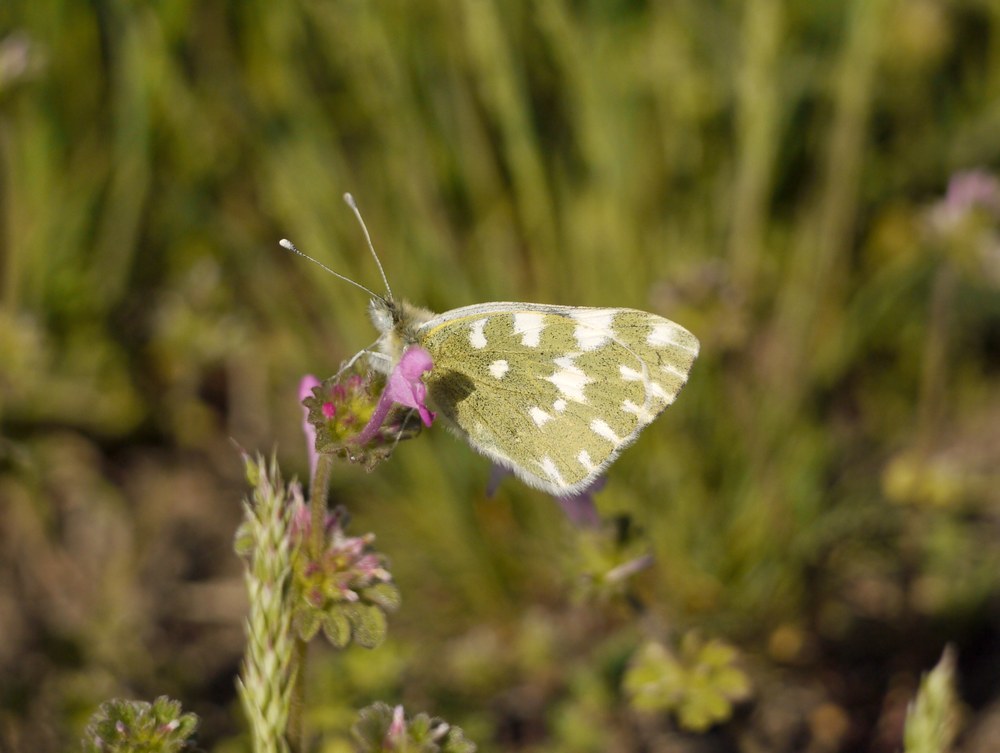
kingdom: Animalia
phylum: Arthropoda
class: Insecta
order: Lepidoptera
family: Pieridae
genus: Pontia
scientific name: Pontia edusa
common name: Eastern bath white
